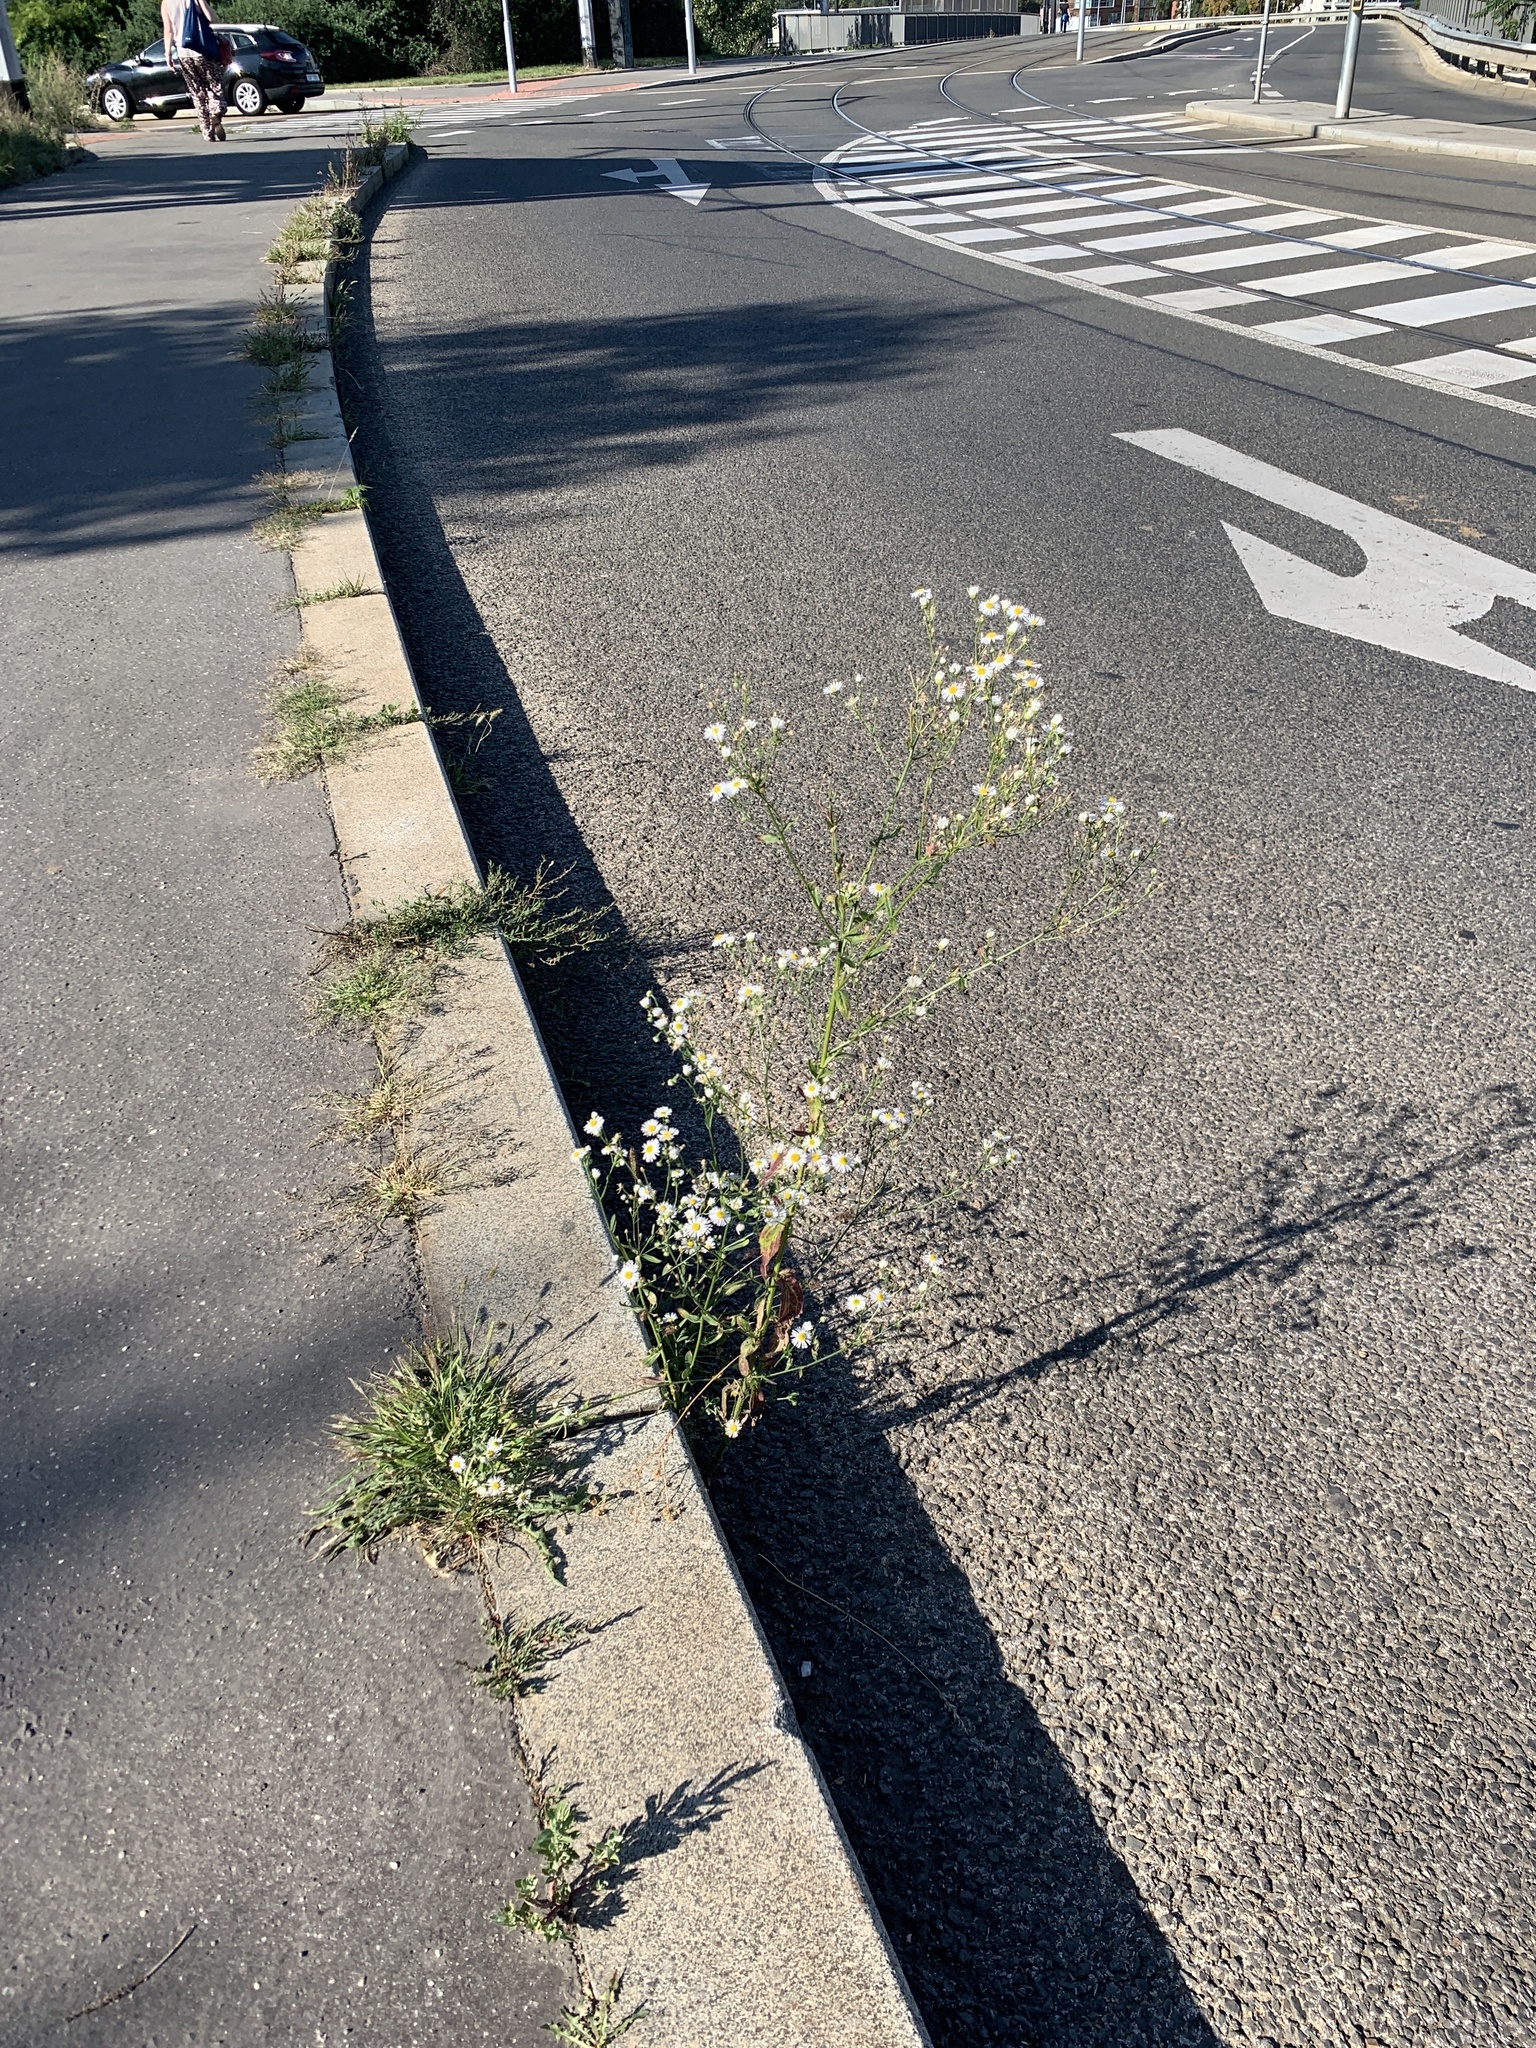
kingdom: Plantae
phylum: Tracheophyta
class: Magnoliopsida
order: Asterales
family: Asteraceae
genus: Erigeron
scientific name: Erigeron annuus
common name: Tall fleabane
